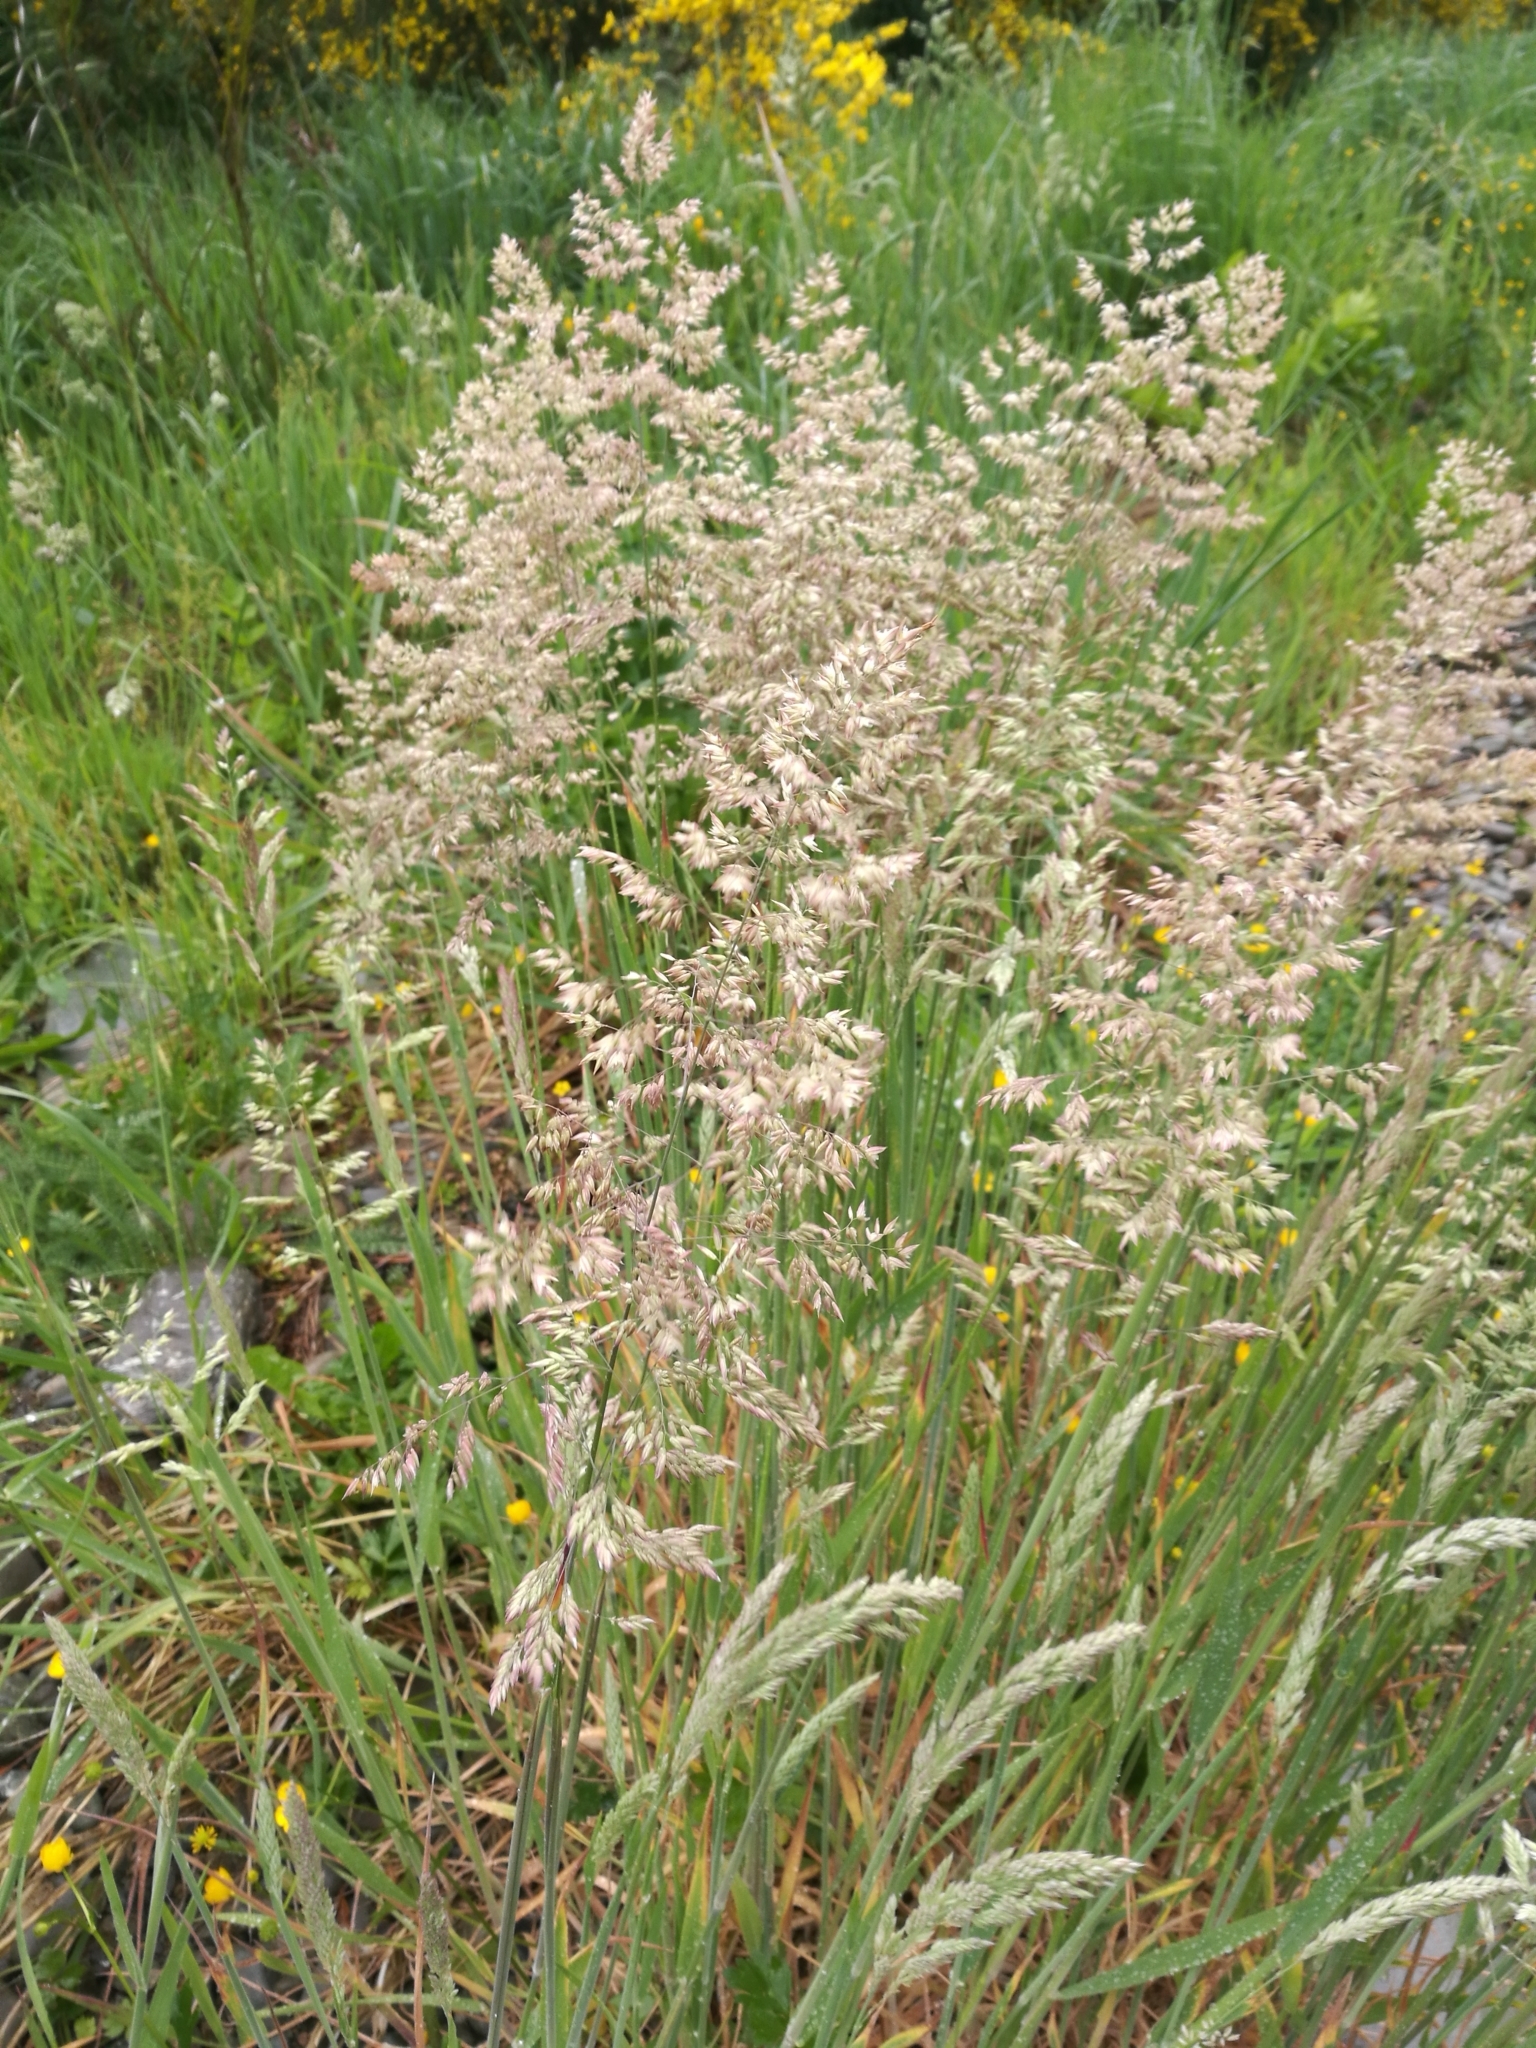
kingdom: Plantae
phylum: Tracheophyta
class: Liliopsida
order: Poales
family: Poaceae
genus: Holcus
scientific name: Holcus lanatus
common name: Yorkshire-fog
